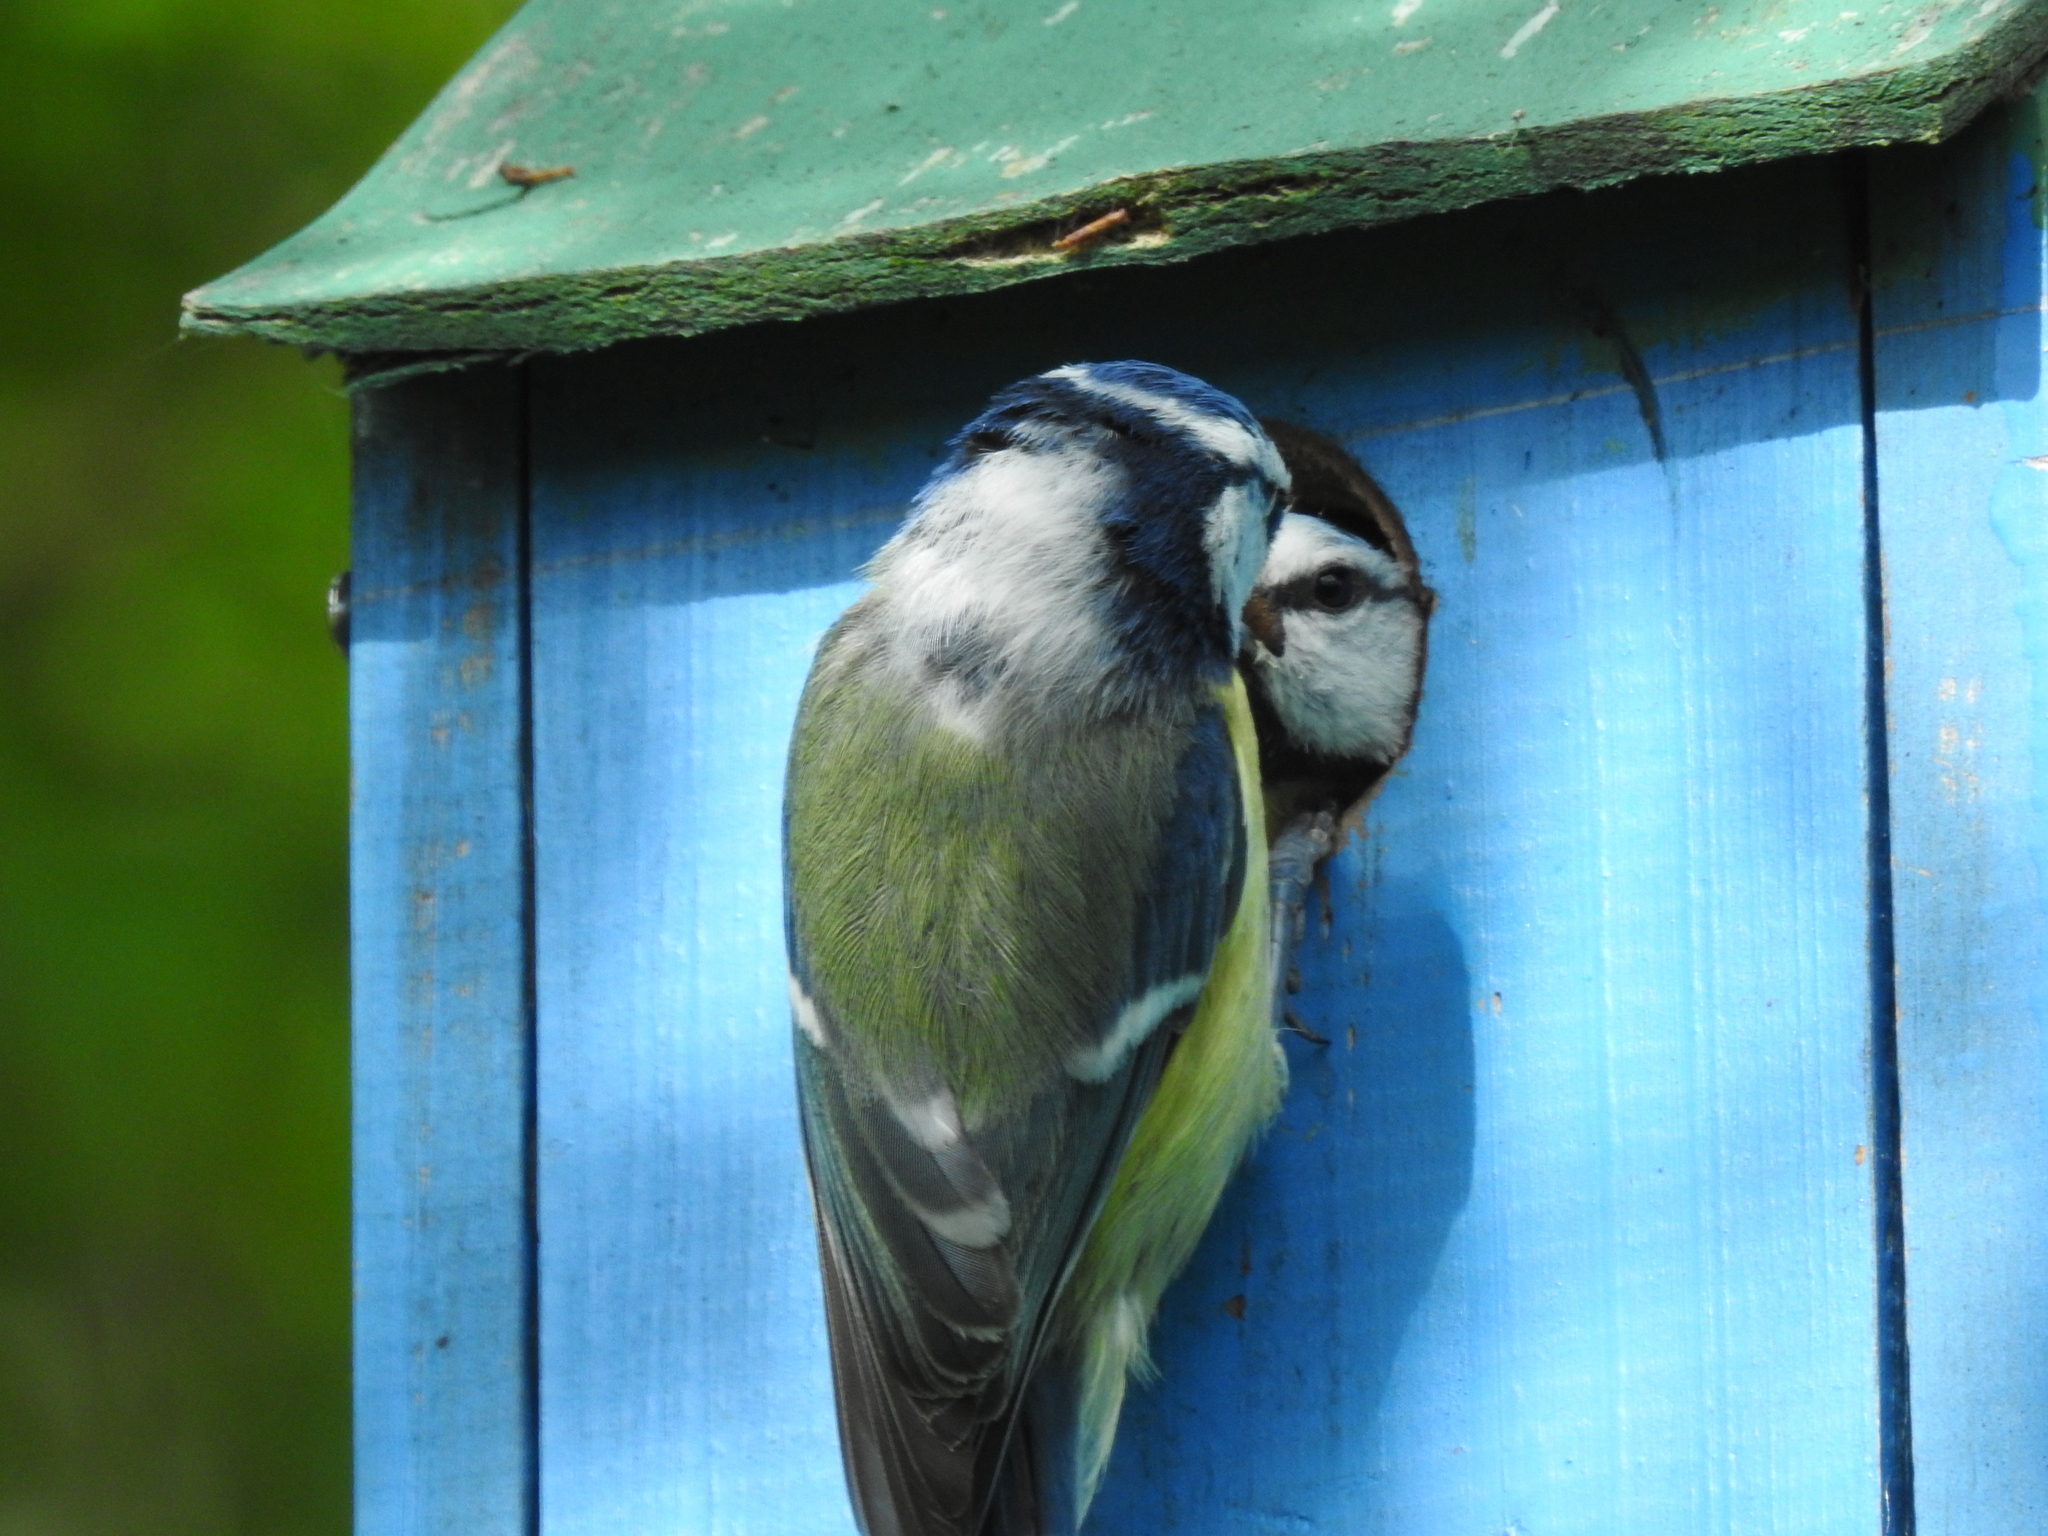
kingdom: Animalia
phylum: Chordata
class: Aves
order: Passeriformes
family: Paridae
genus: Cyanistes
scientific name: Cyanistes caeruleus
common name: Eurasian blue tit
